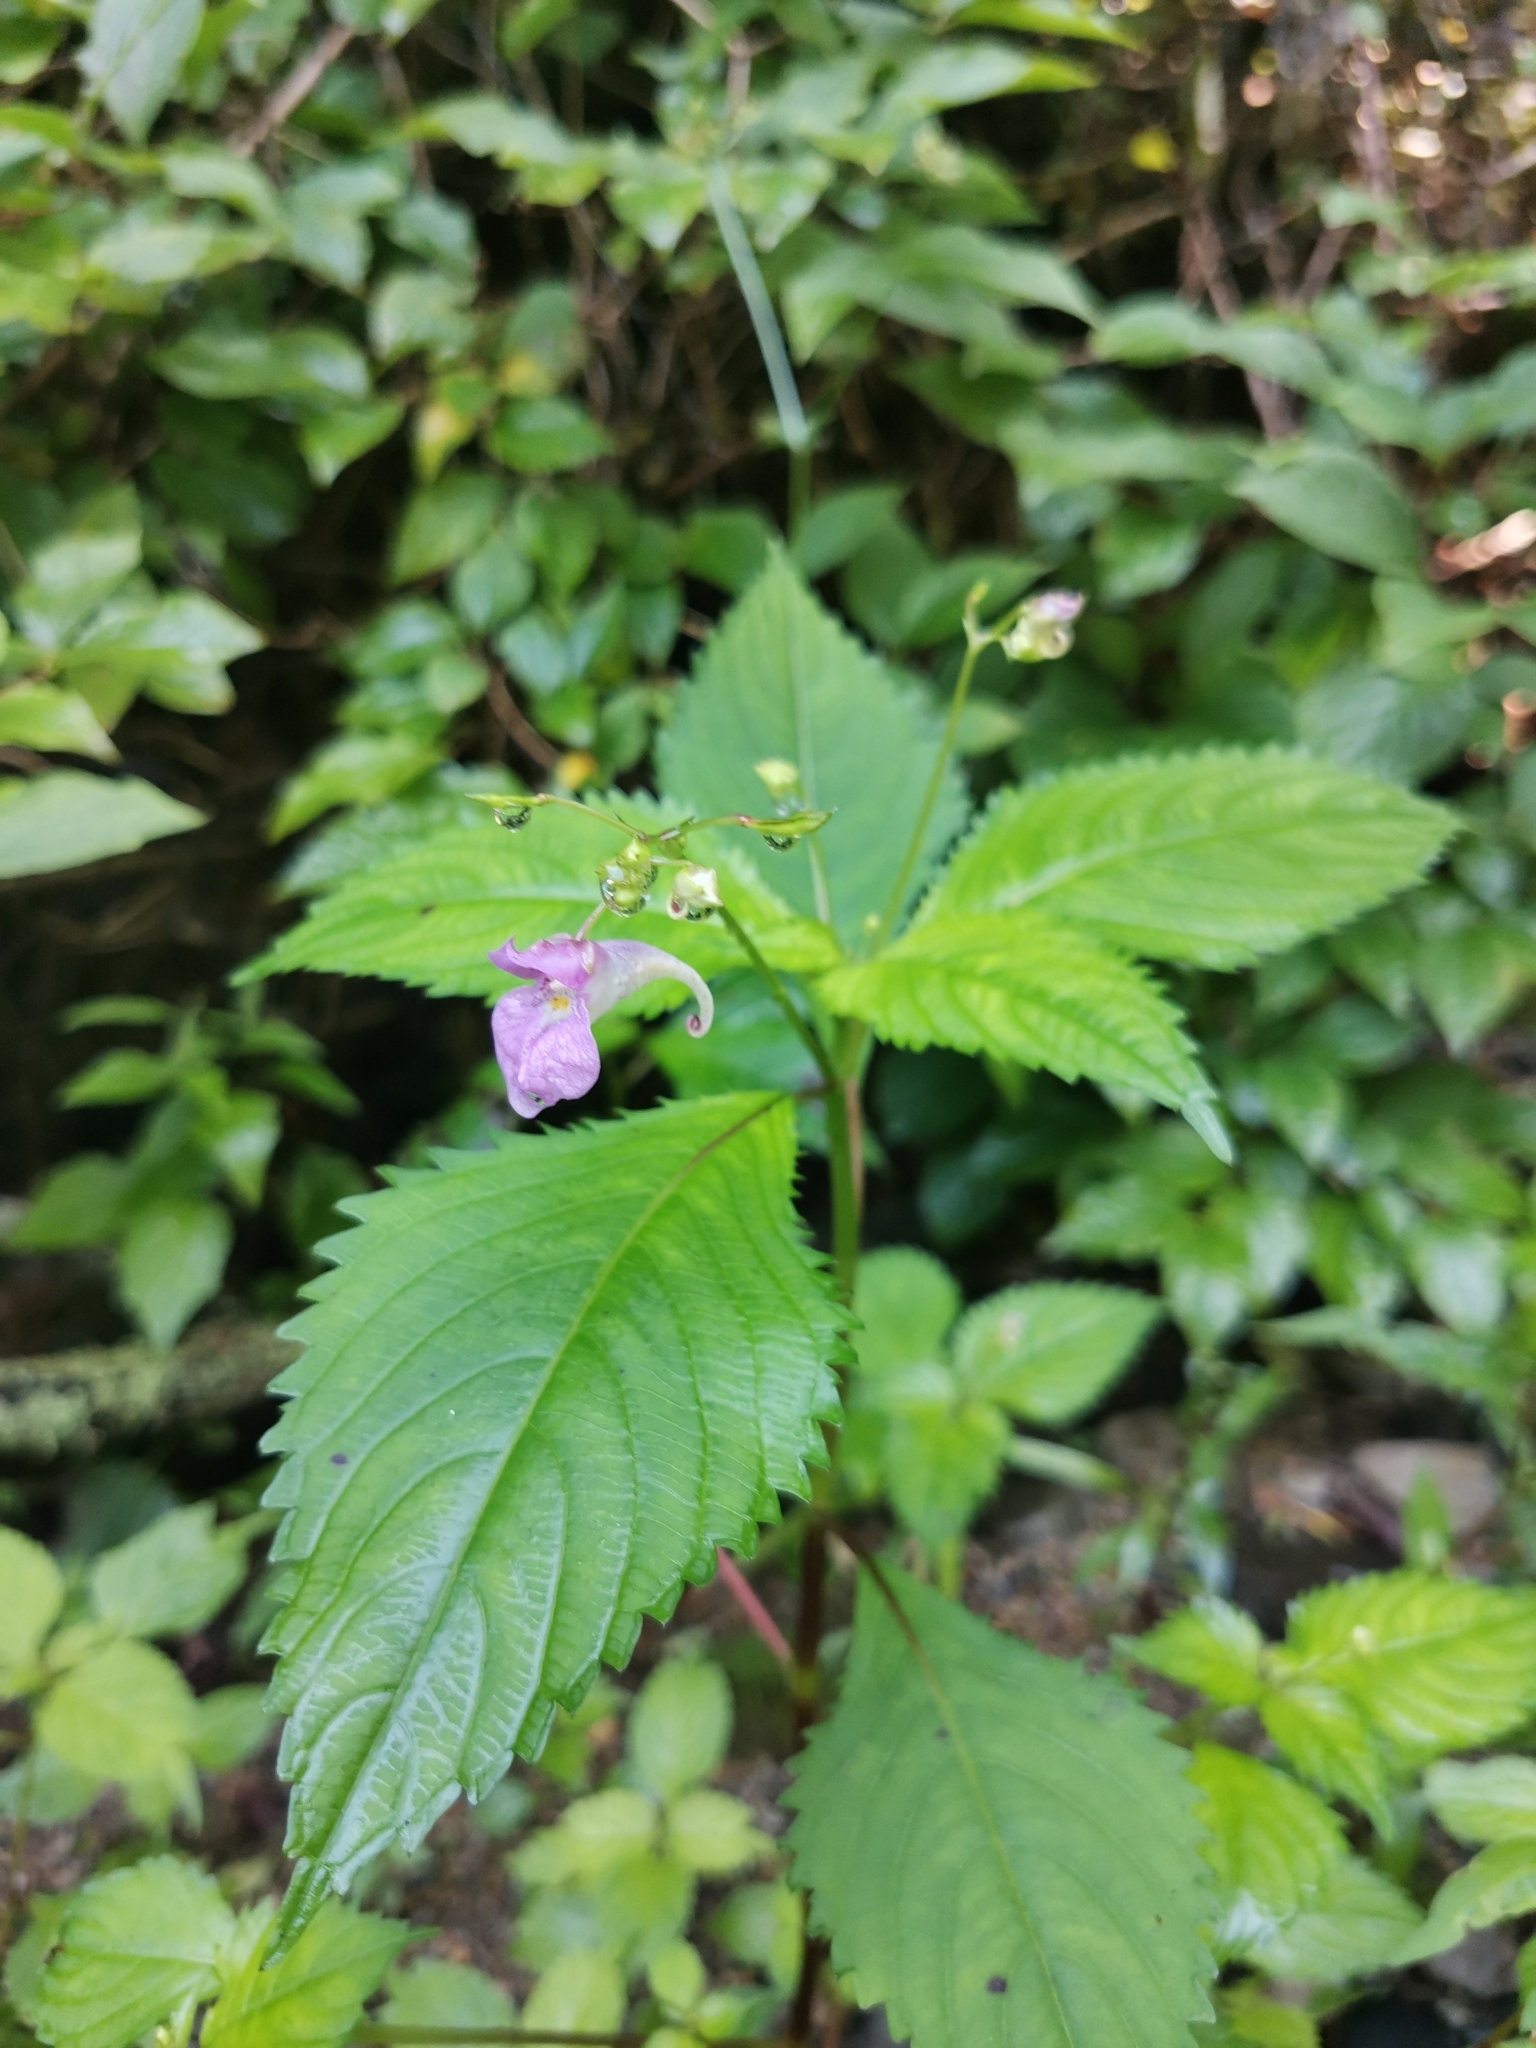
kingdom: Plantae
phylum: Tracheophyta
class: Magnoliopsida
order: Ericales
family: Balsaminaceae
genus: Impatiens
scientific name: Impatiens furcillata
